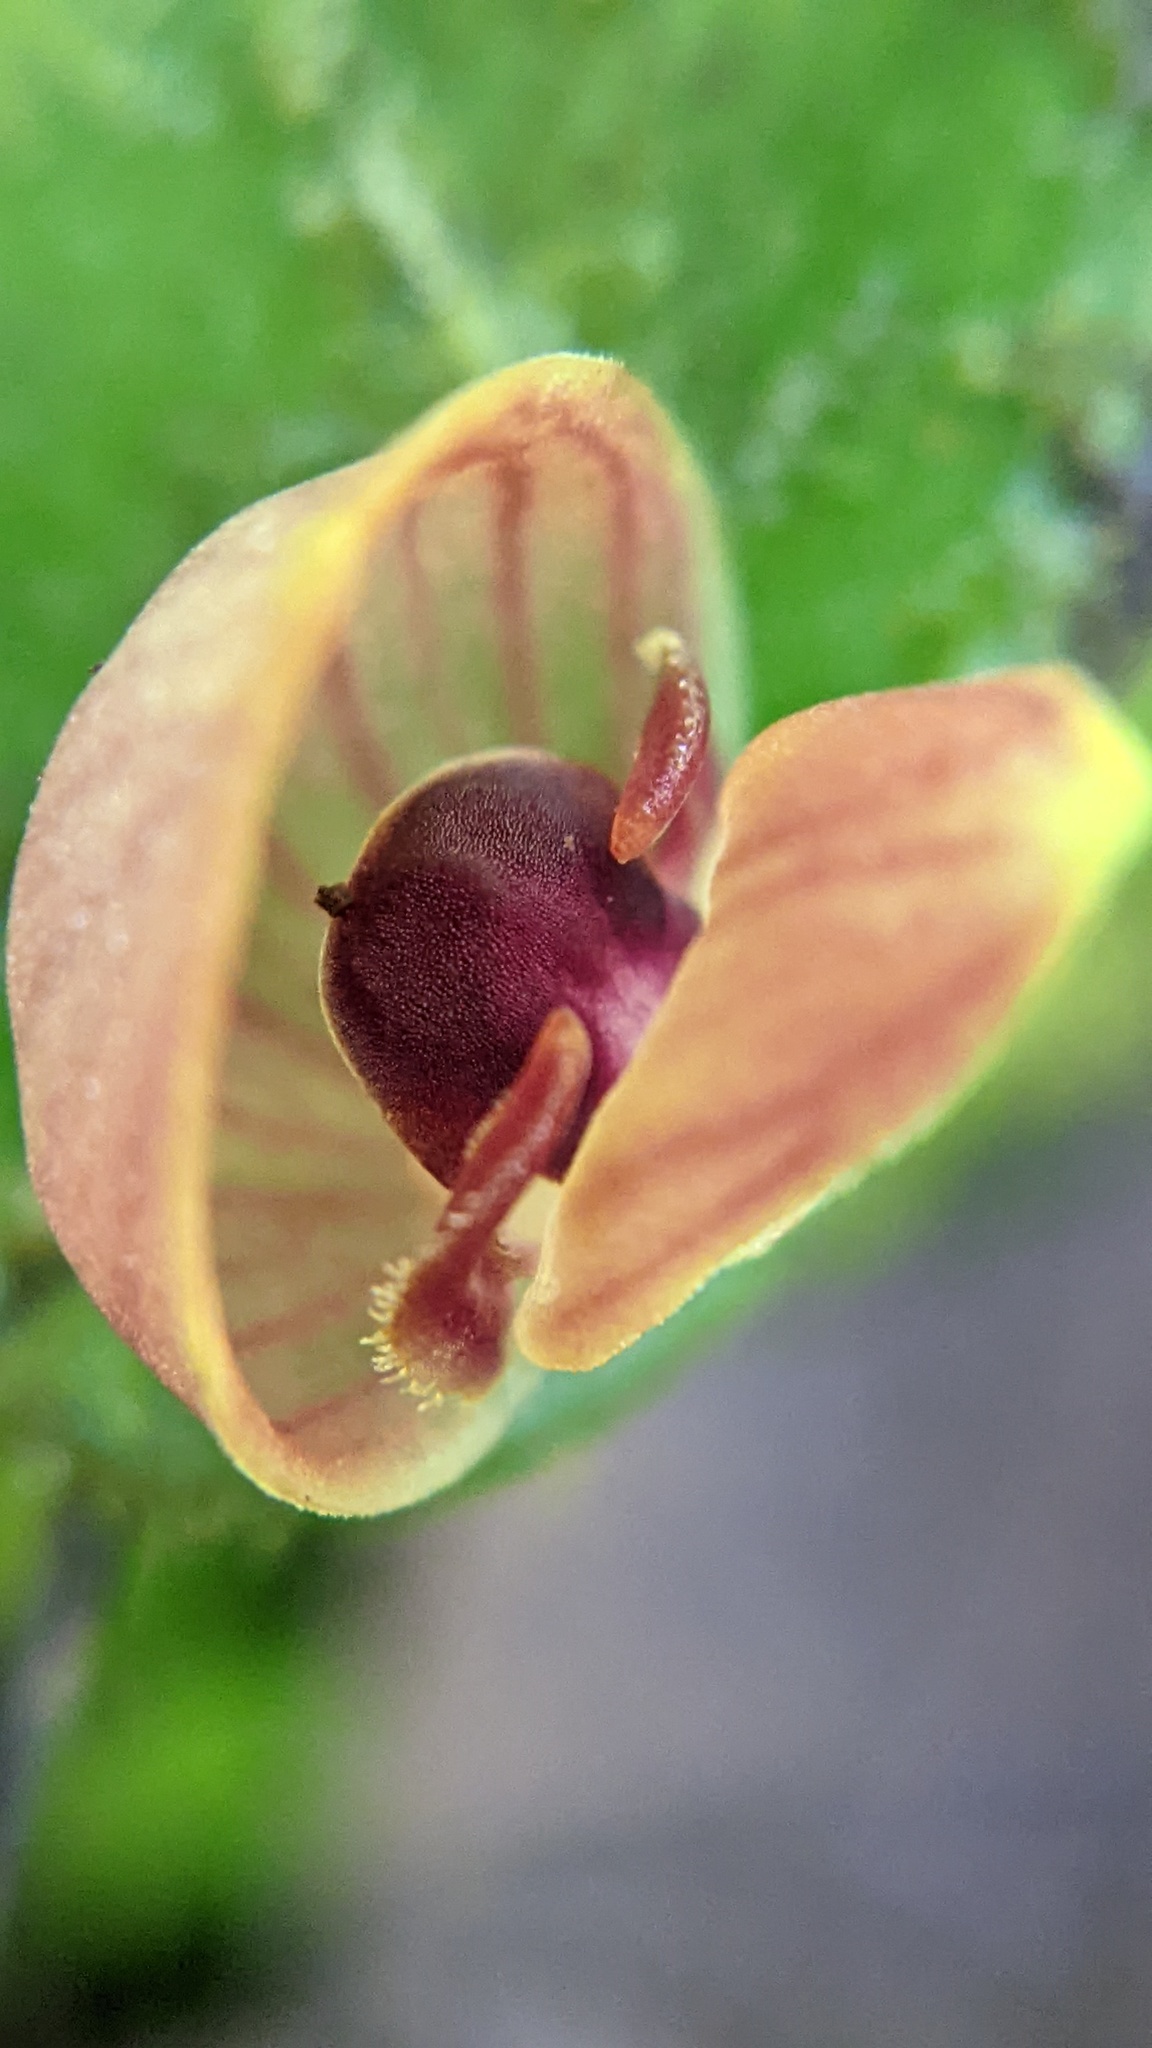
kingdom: Plantae
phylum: Tracheophyta
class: Liliopsida
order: Asparagales
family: Orchidaceae
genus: Pleurothallis
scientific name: Pleurothallis palliolata
